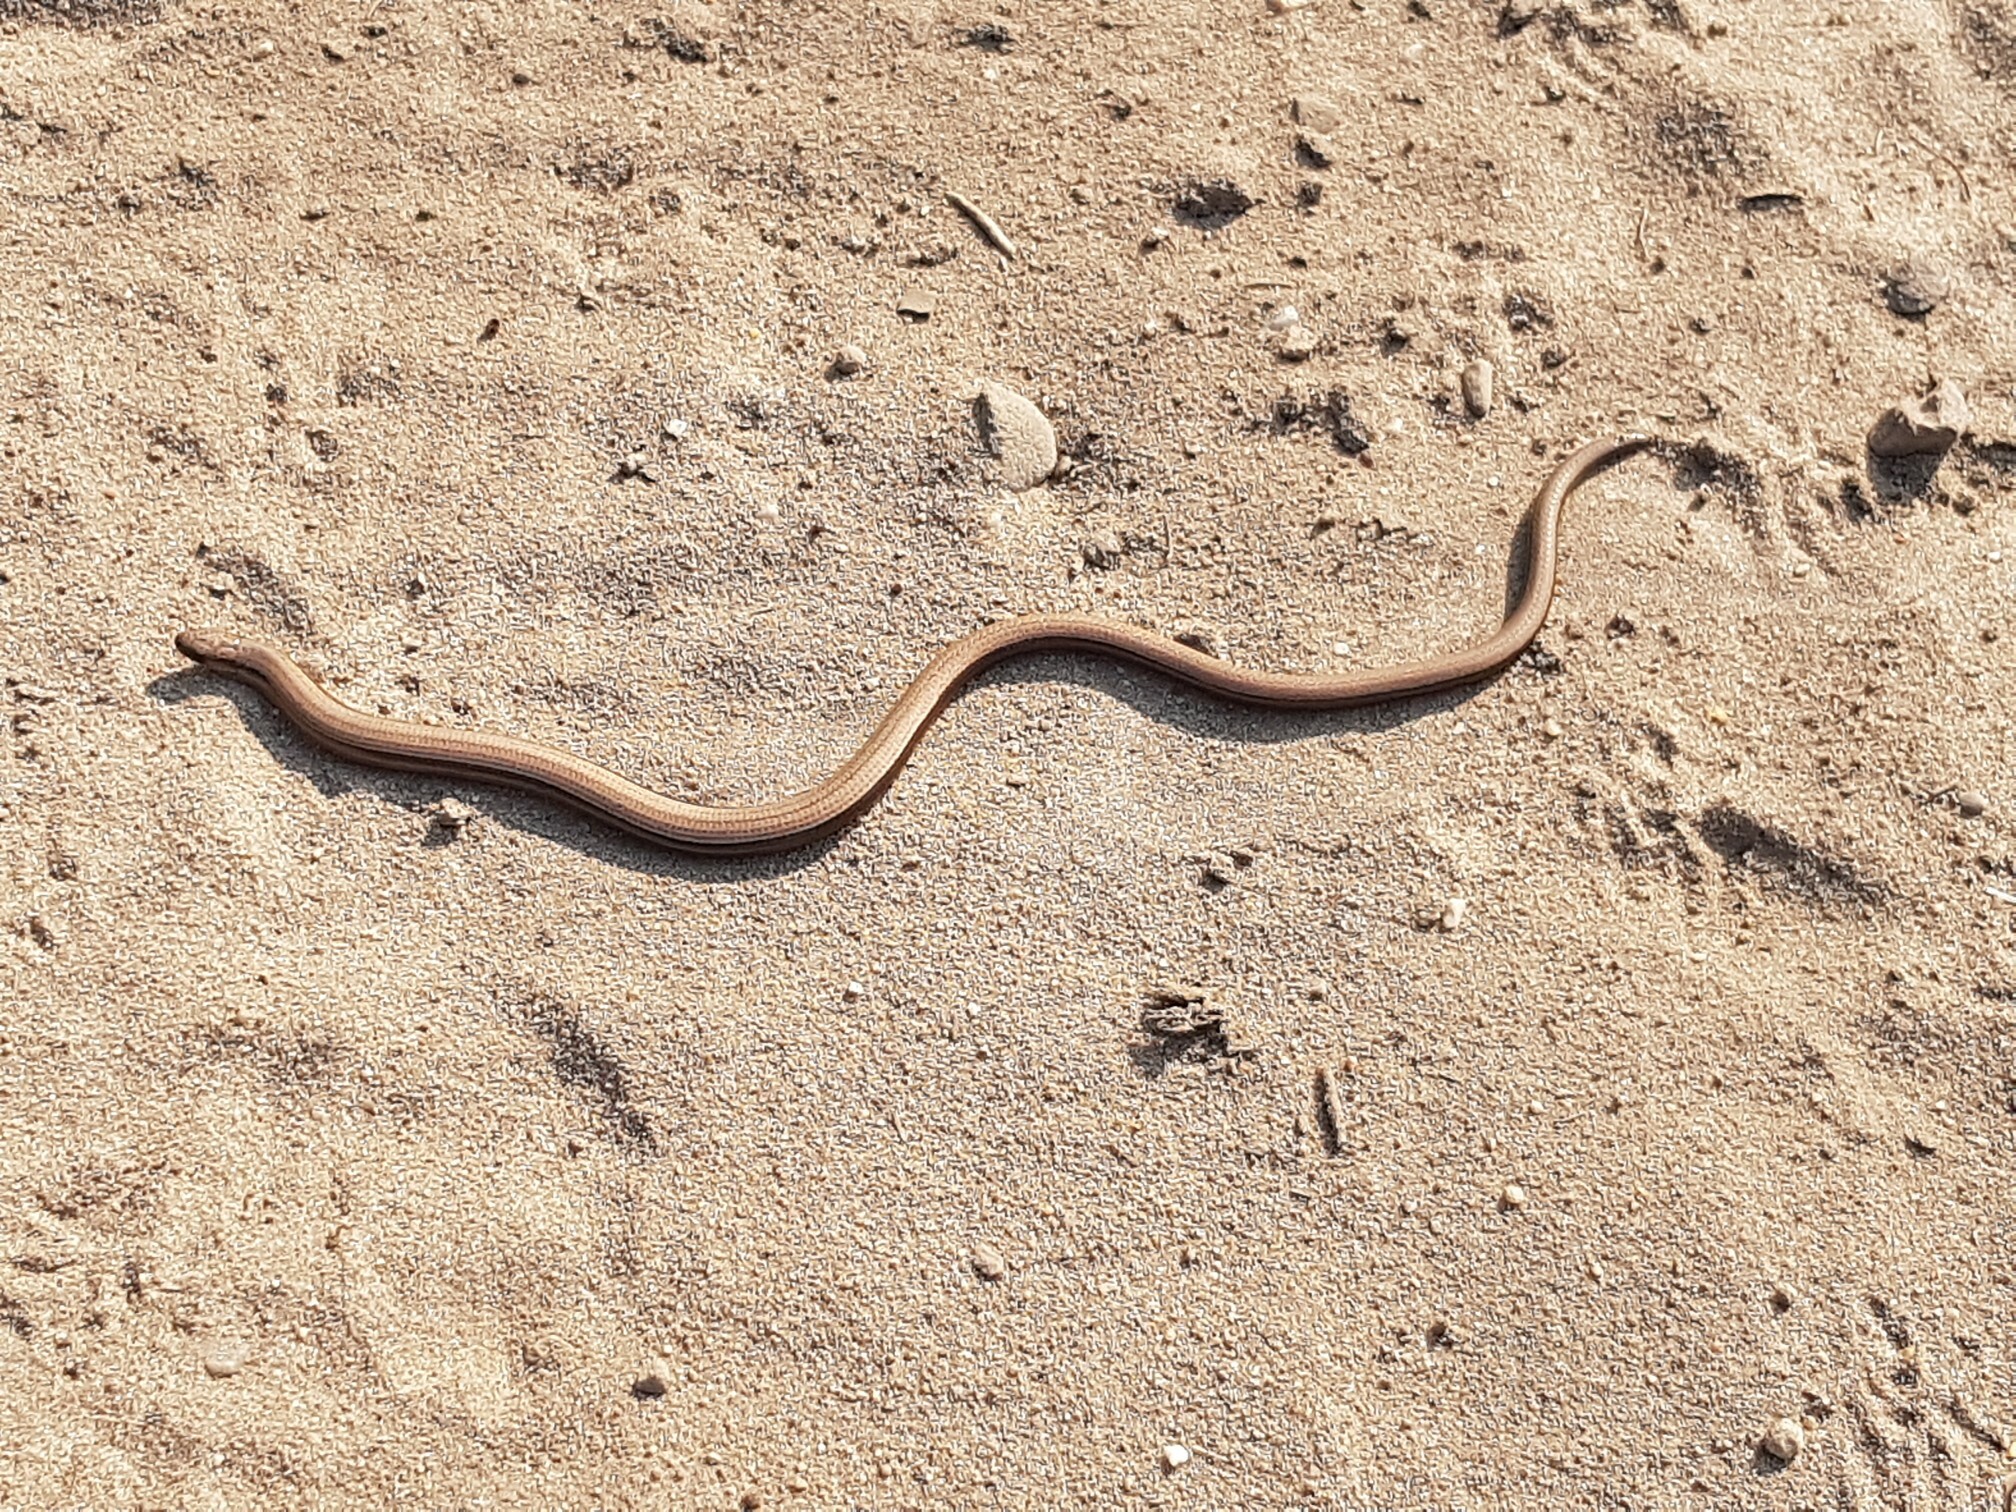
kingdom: Animalia
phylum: Chordata
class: Squamata
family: Anguidae
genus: Anguis
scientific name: Anguis fragilis
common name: Slow worm
